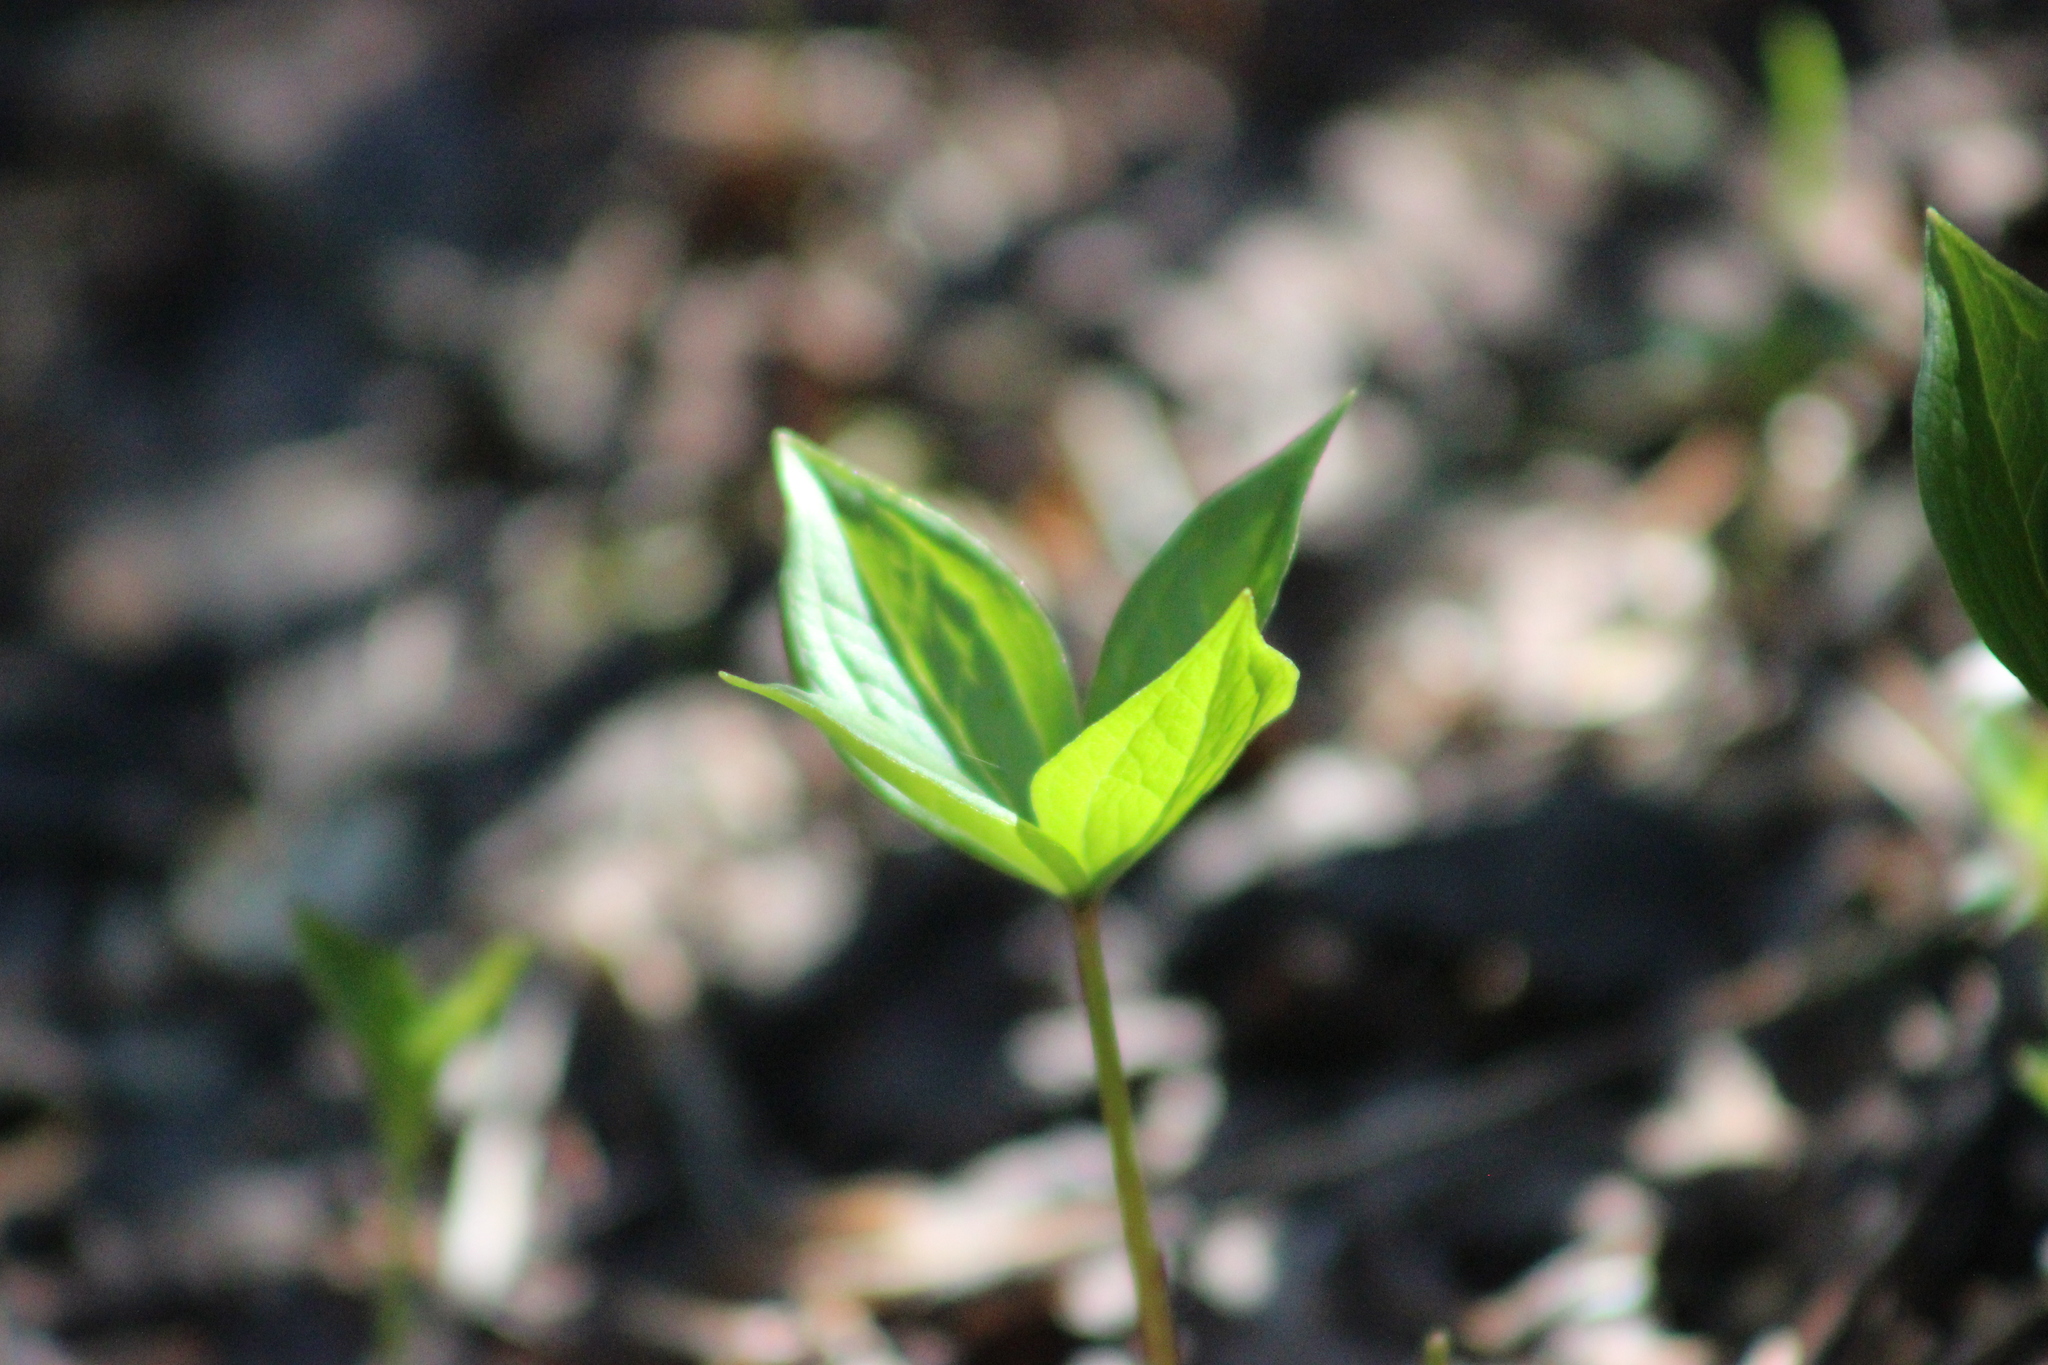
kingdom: Plantae
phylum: Tracheophyta
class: Liliopsida
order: Liliales
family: Melanthiaceae
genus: Paris
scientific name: Paris quadrifolia
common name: Herb-paris
